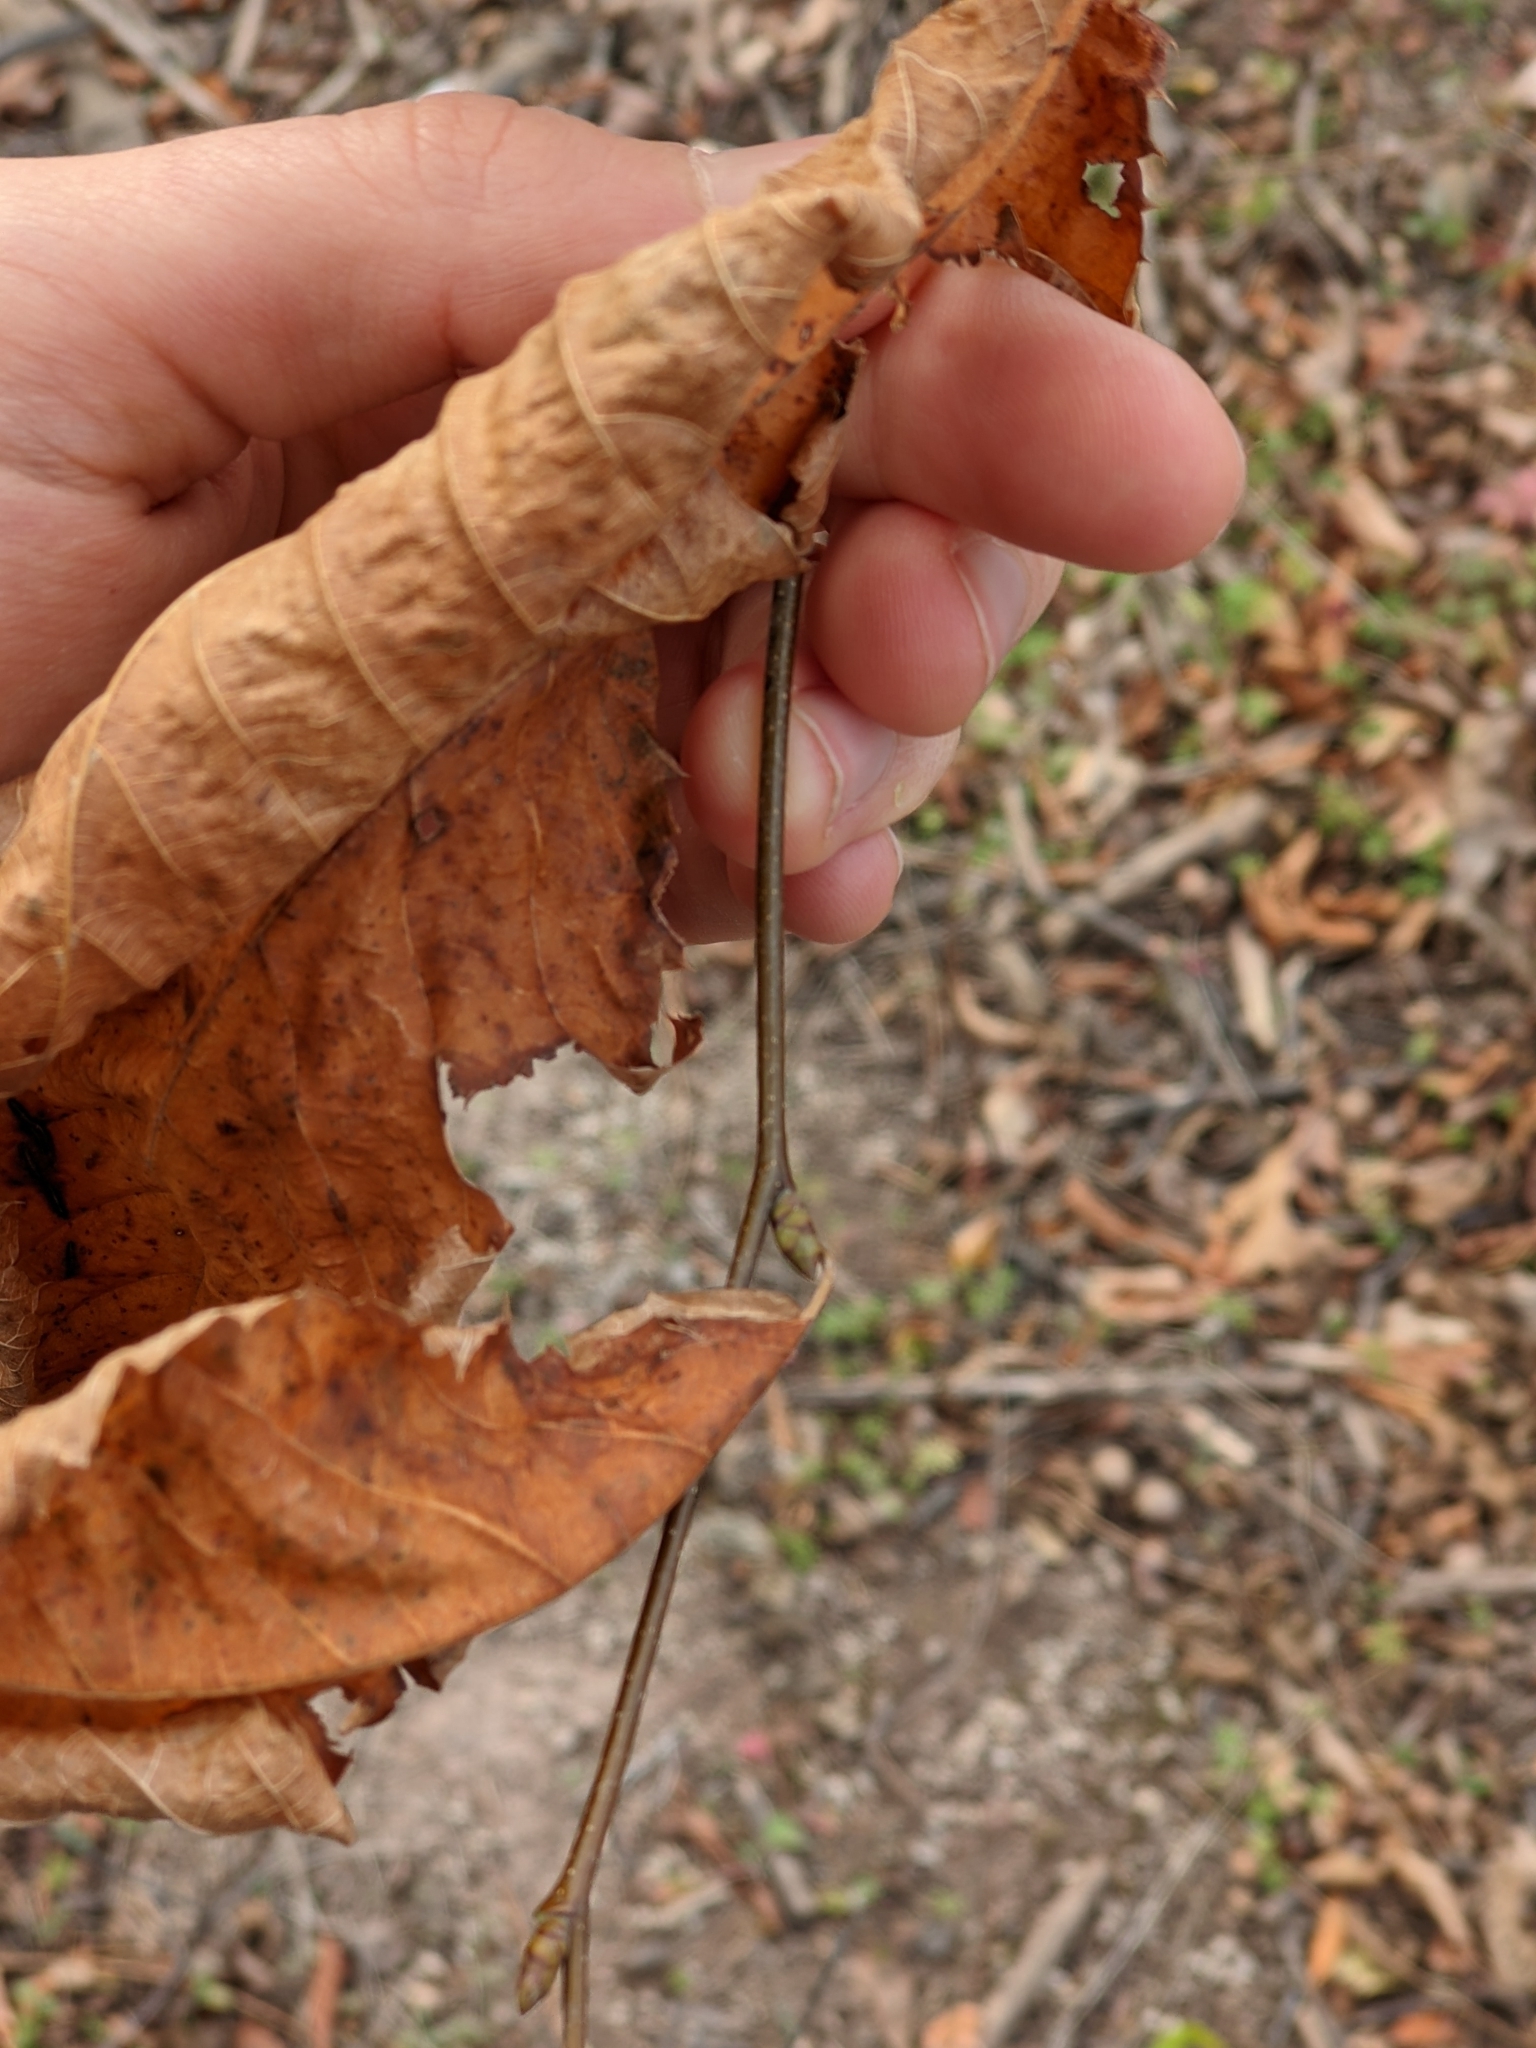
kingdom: Plantae
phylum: Tracheophyta
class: Magnoliopsida
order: Fagales
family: Betulaceae
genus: Ostrya
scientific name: Ostrya virginiana
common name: Ironwood
